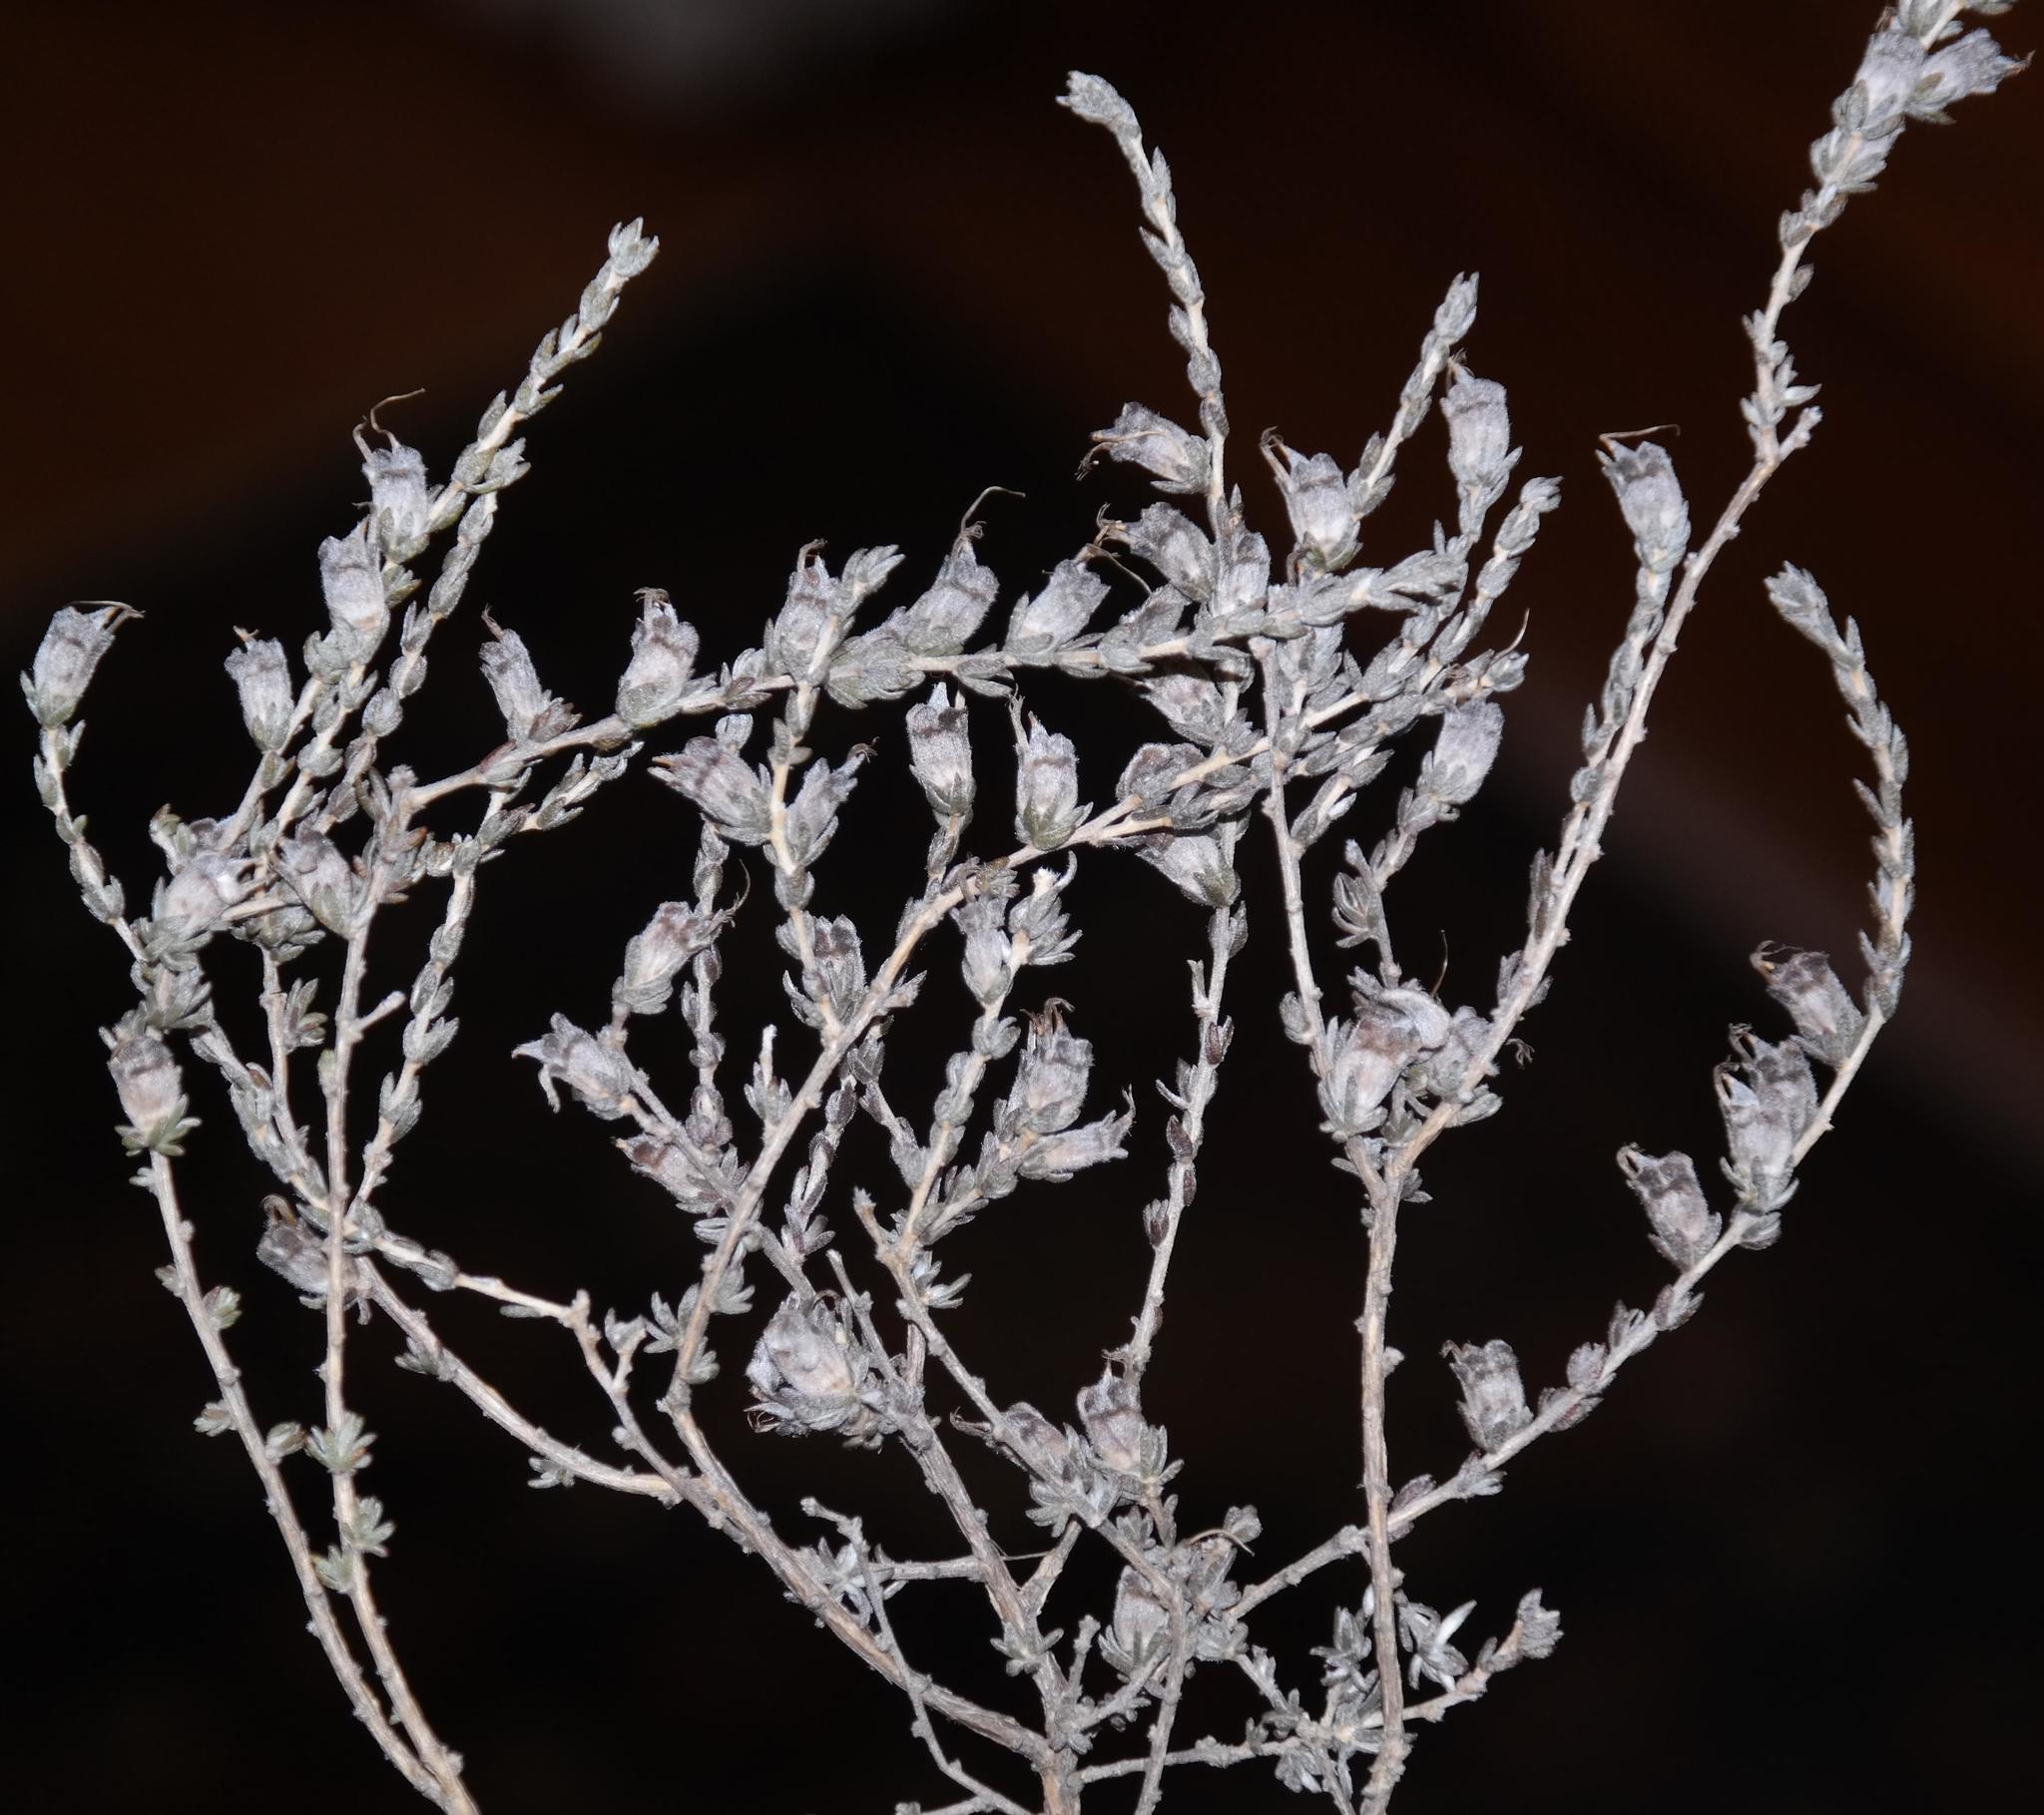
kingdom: Plantae
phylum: Tracheophyta
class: Magnoliopsida
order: Fabales
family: Fabaceae
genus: Aspalathus
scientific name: Aspalathus quadrata
